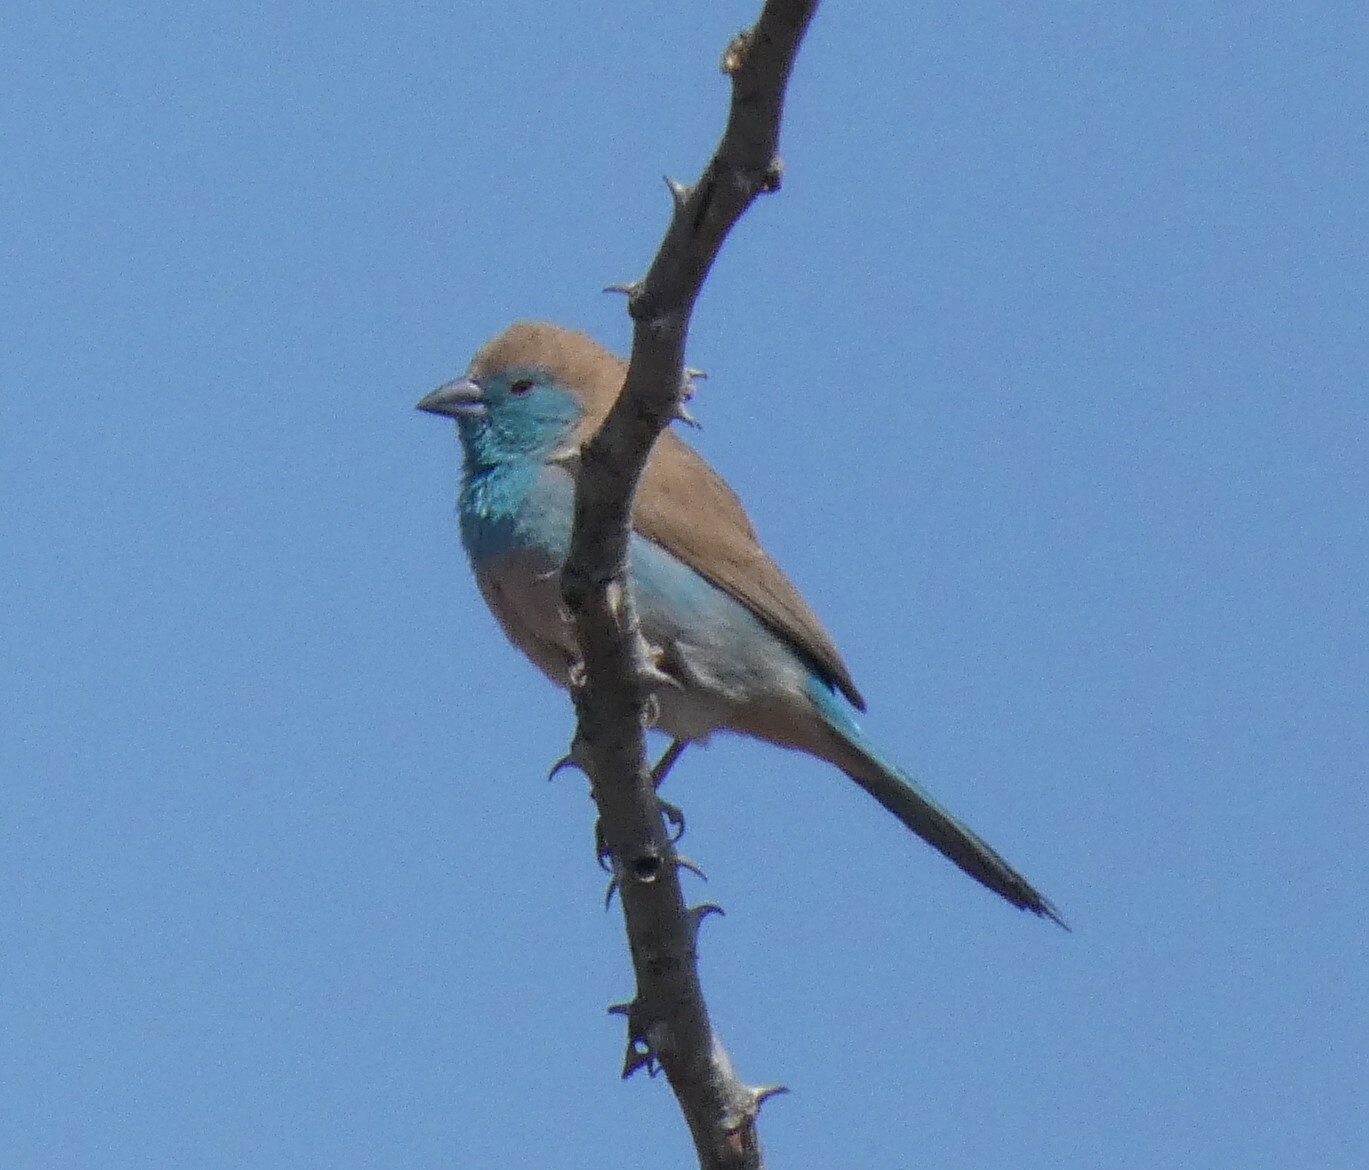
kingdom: Animalia
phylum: Chordata
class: Aves
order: Passeriformes
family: Estrildidae
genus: Uraeginthus
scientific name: Uraeginthus angolensis
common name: Blue waxbill
